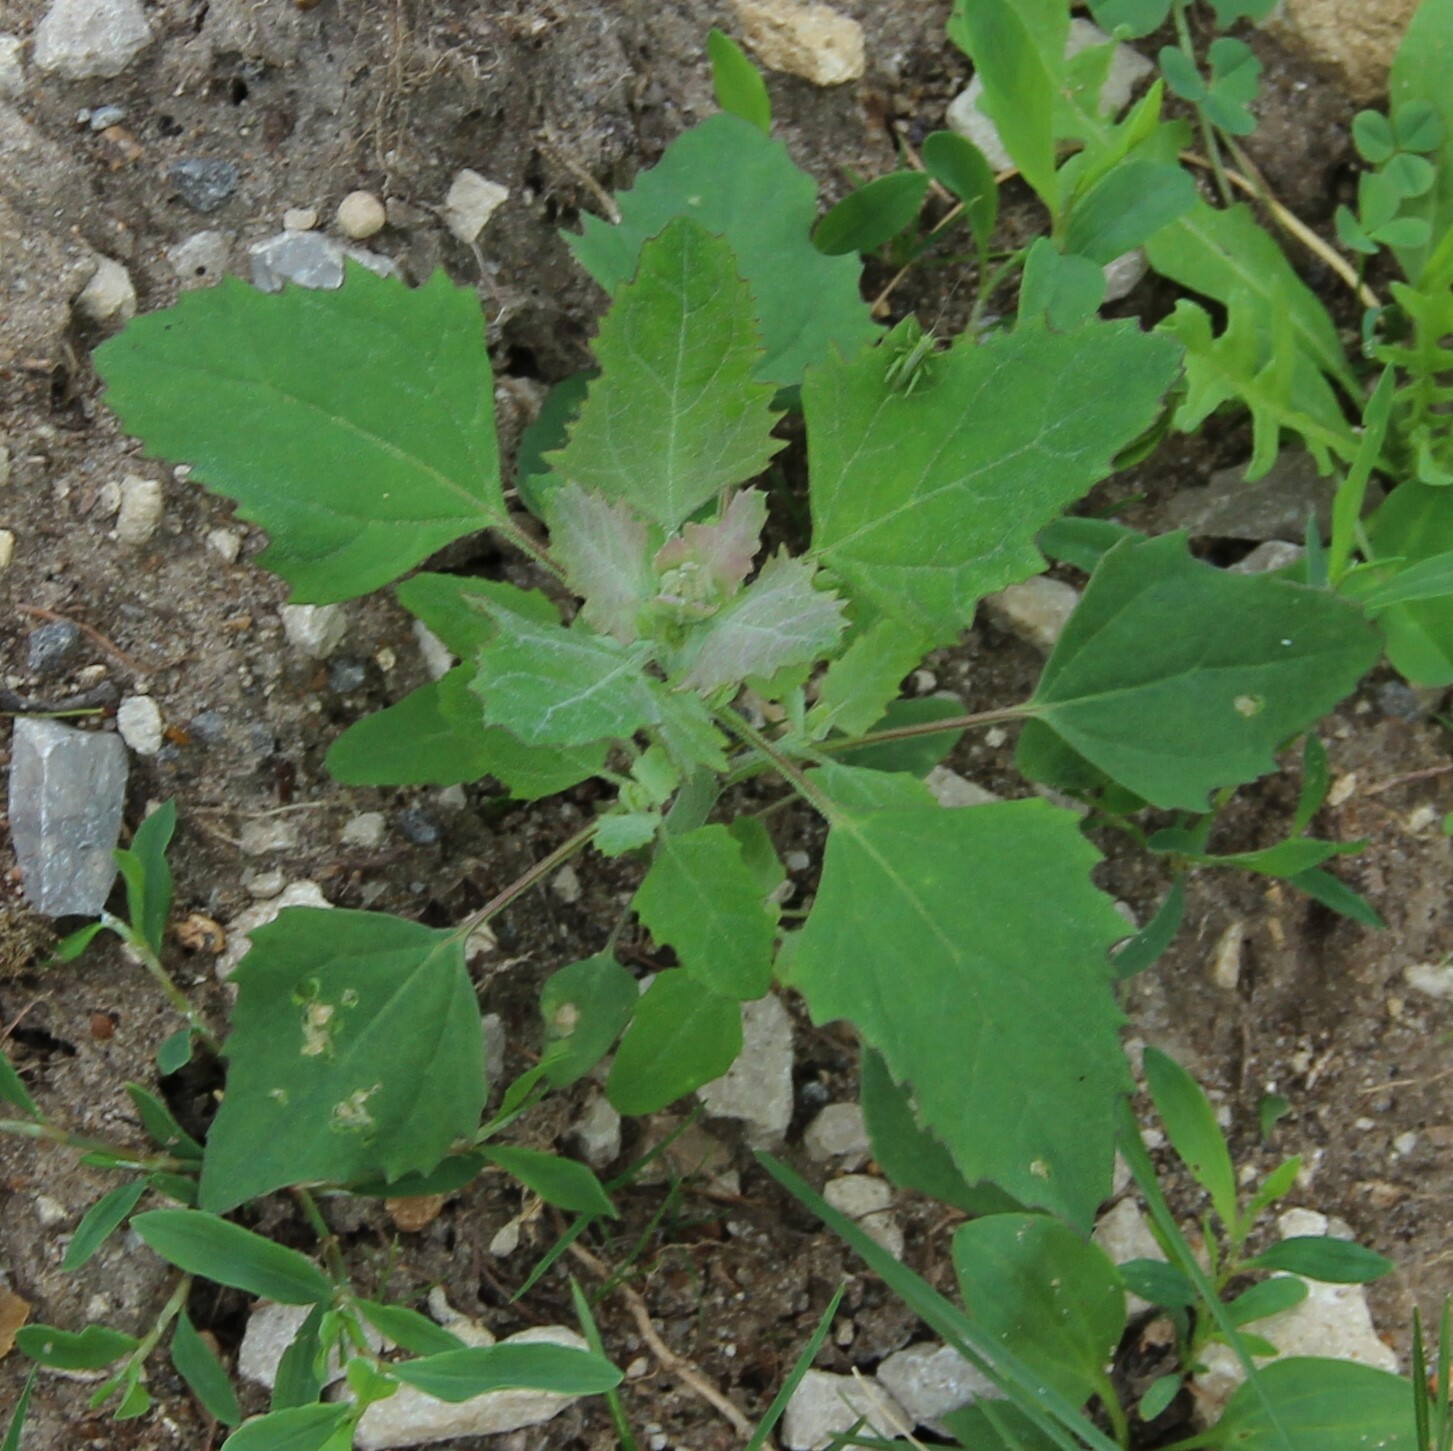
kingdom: Plantae
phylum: Tracheophyta
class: Magnoliopsida
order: Caryophyllales
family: Amaranthaceae
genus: Chenopodium
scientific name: Chenopodium album
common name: Fat-hen
